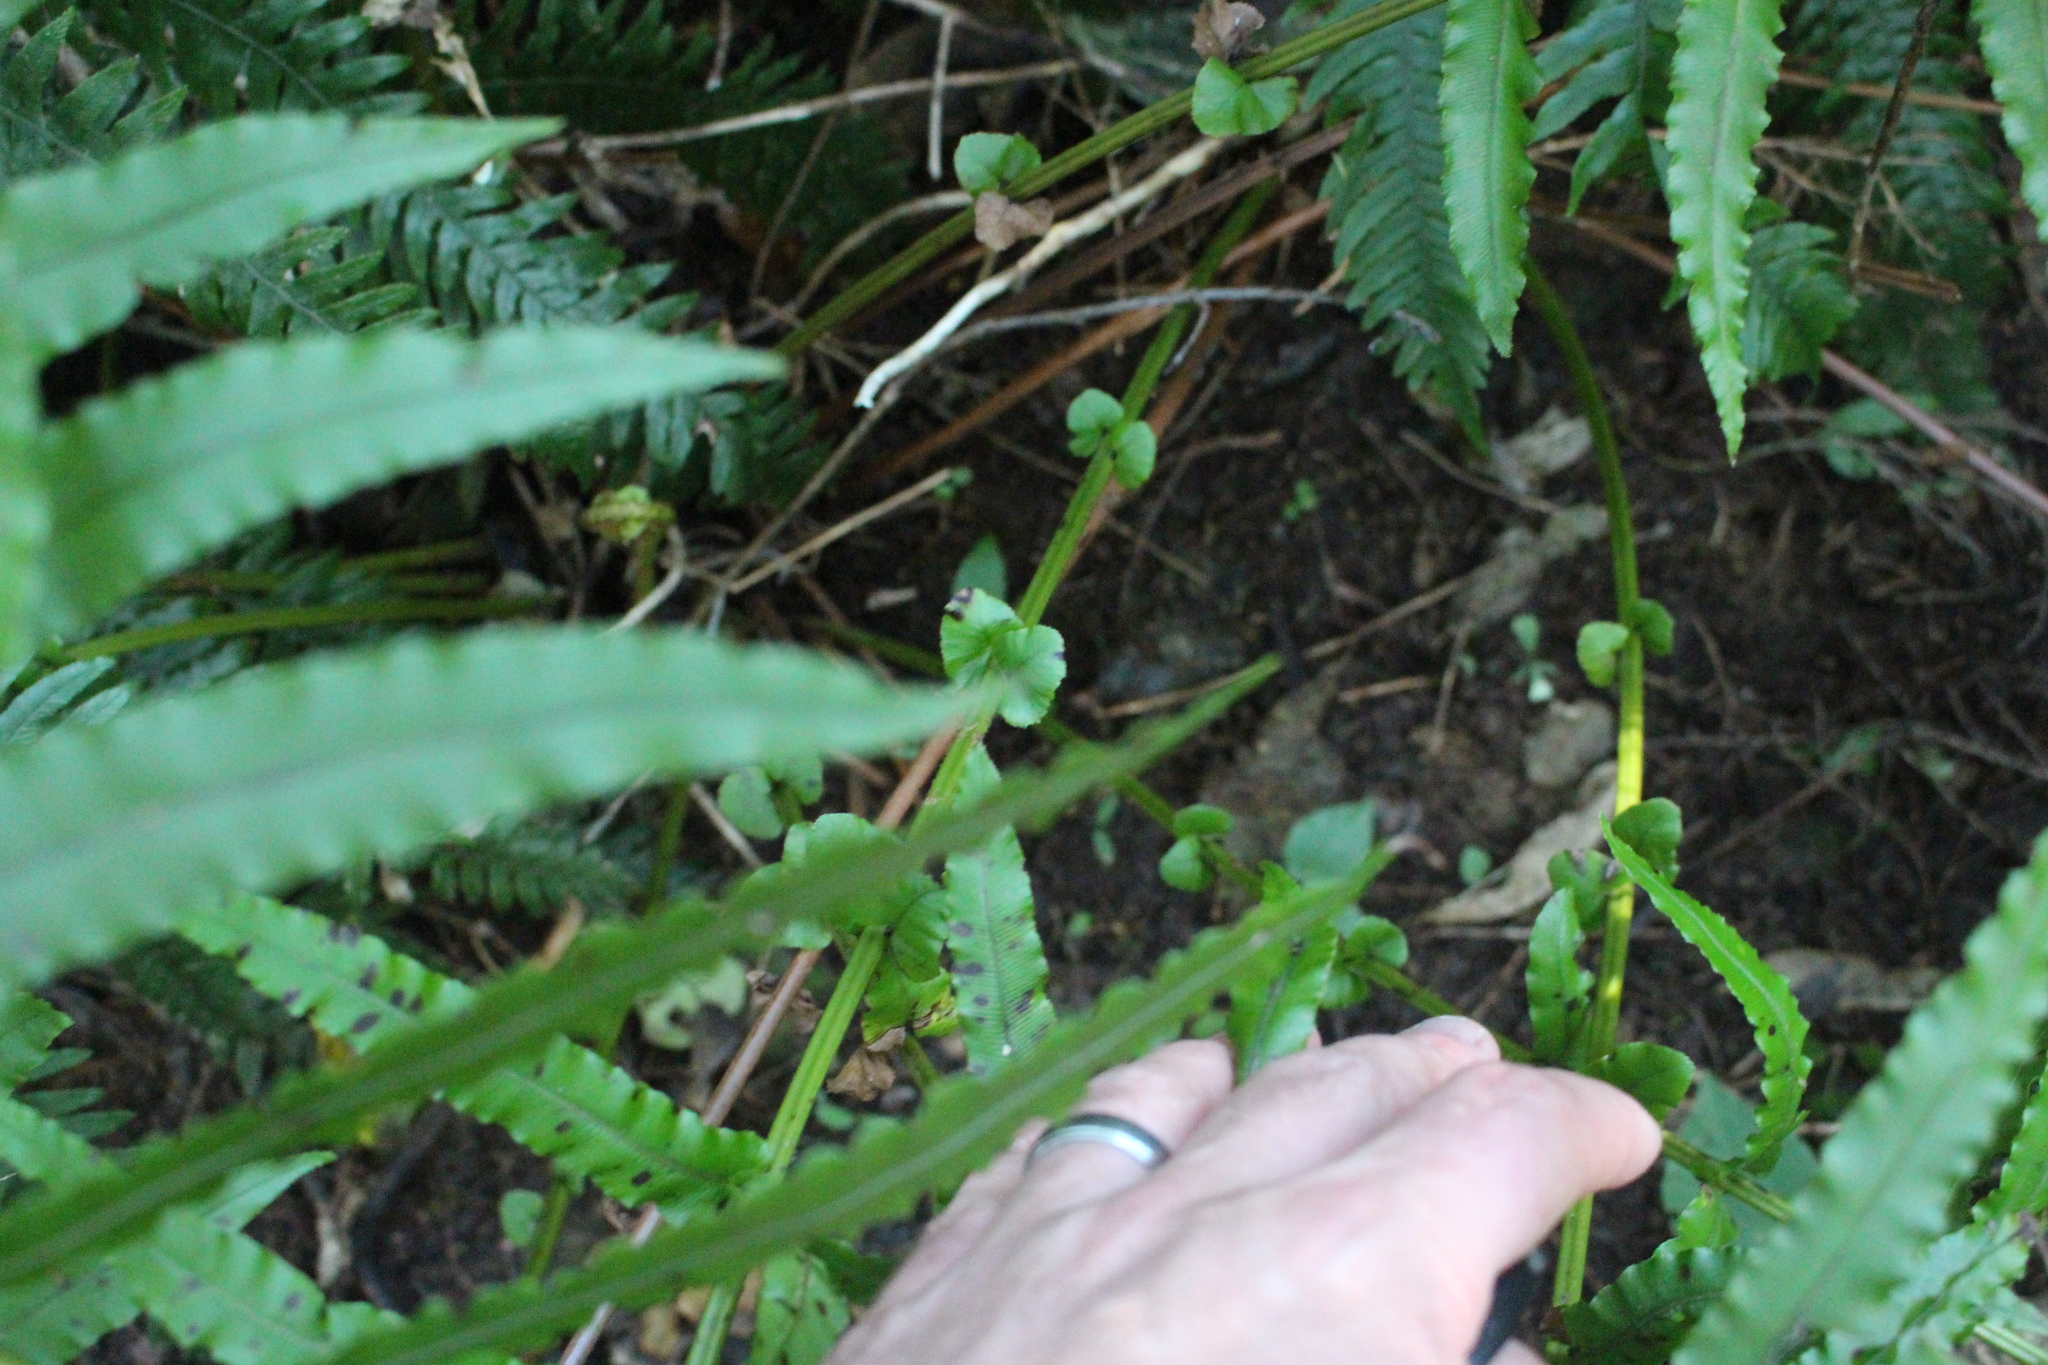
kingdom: Plantae
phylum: Tracheophyta
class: Polypodiopsida
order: Polypodiales
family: Blechnaceae
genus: Parablechnum
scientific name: Parablechnum novae-zelandiae
